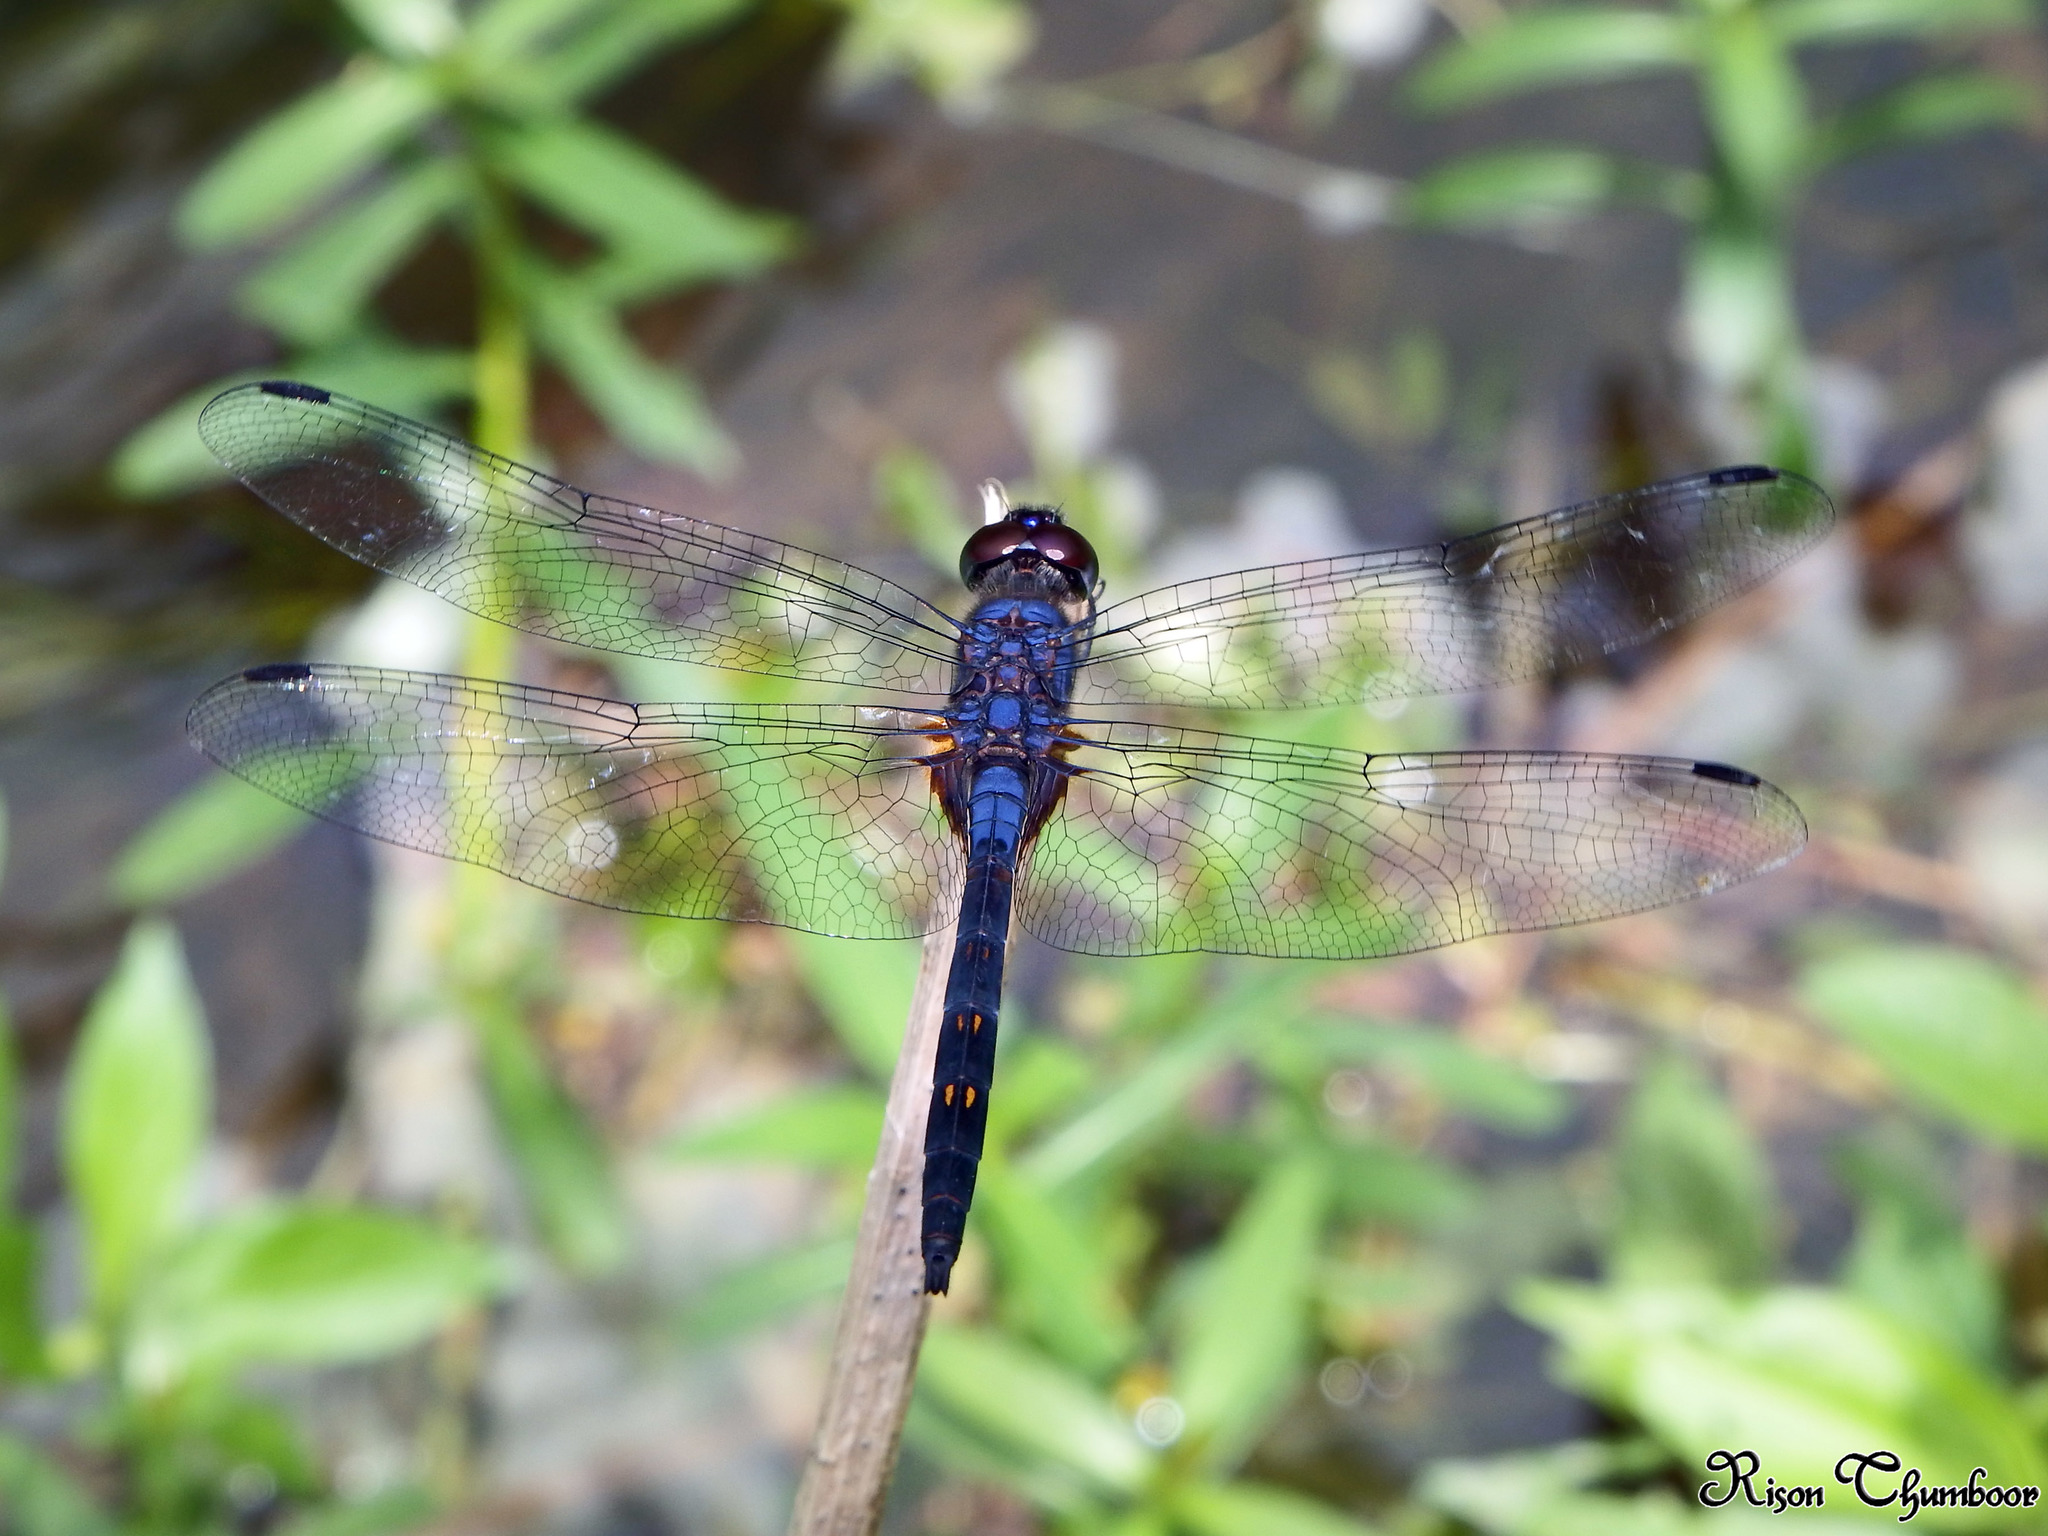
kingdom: Animalia
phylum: Arthropoda
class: Insecta
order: Odonata
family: Libellulidae
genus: Trithemis
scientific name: Trithemis festiva
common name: Indigo dropwing
